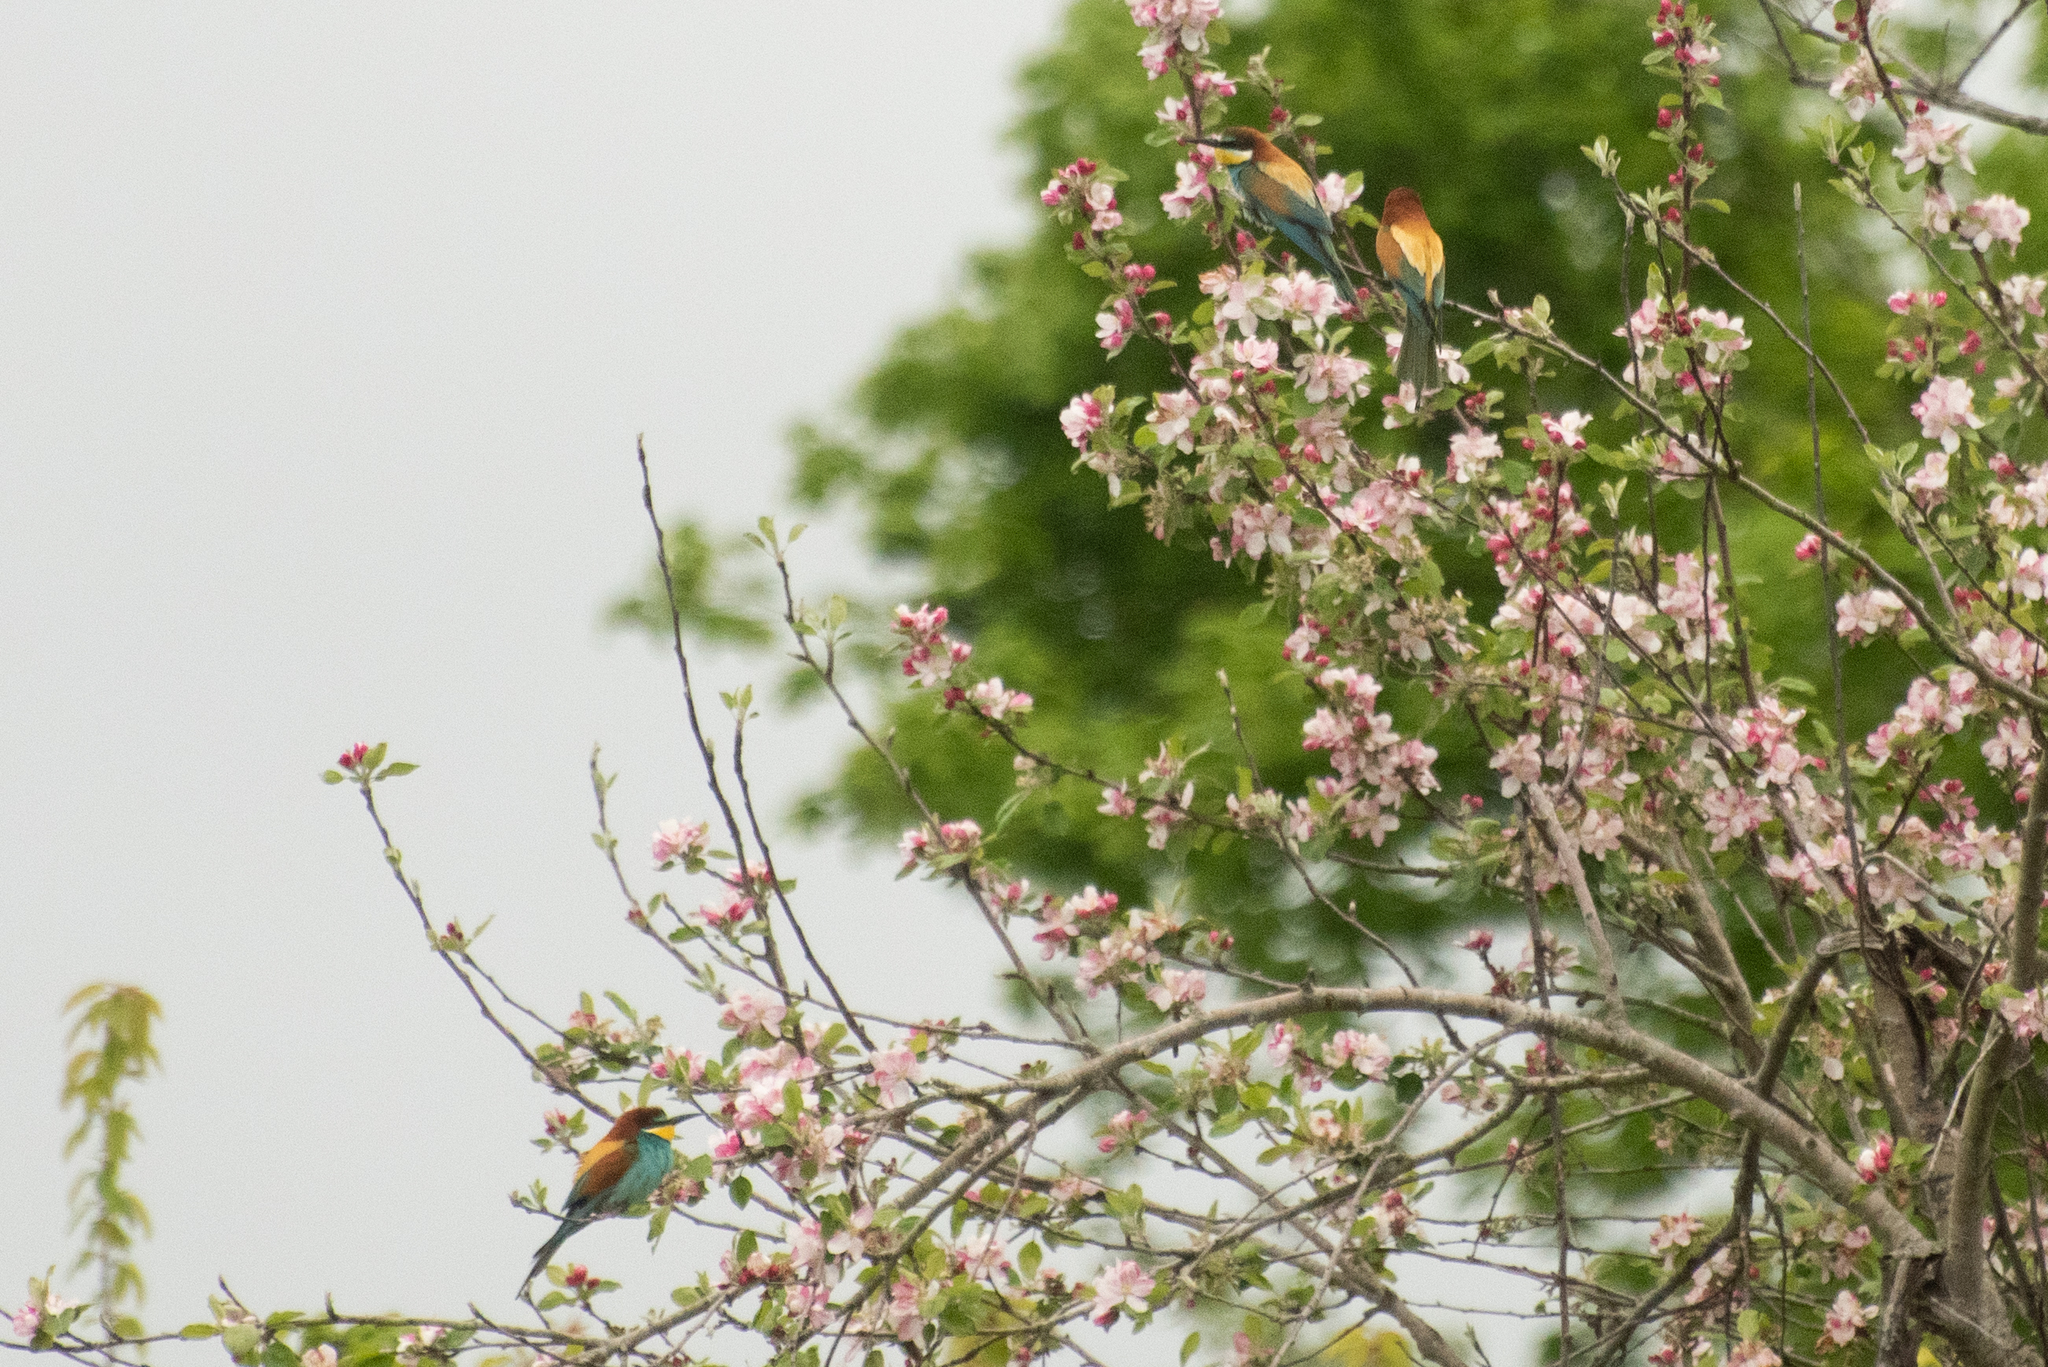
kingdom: Animalia
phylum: Chordata
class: Aves
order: Coraciiformes
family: Meropidae
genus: Merops
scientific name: Merops apiaster
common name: European bee-eater
